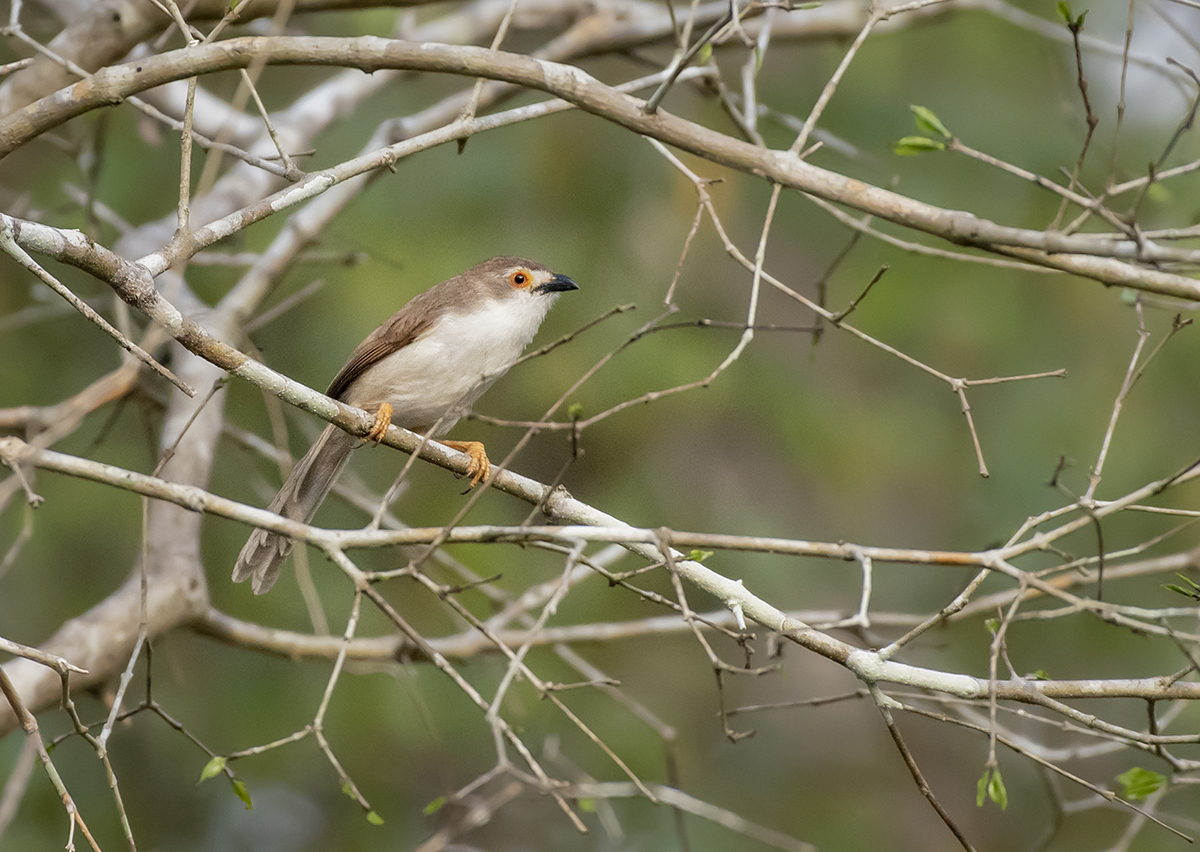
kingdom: Animalia
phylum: Chordata
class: Aves
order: Passeriformes
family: Sylviidae
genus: Chrysomma
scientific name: Chrysomma sinense
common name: Yellow-eyed babbler
